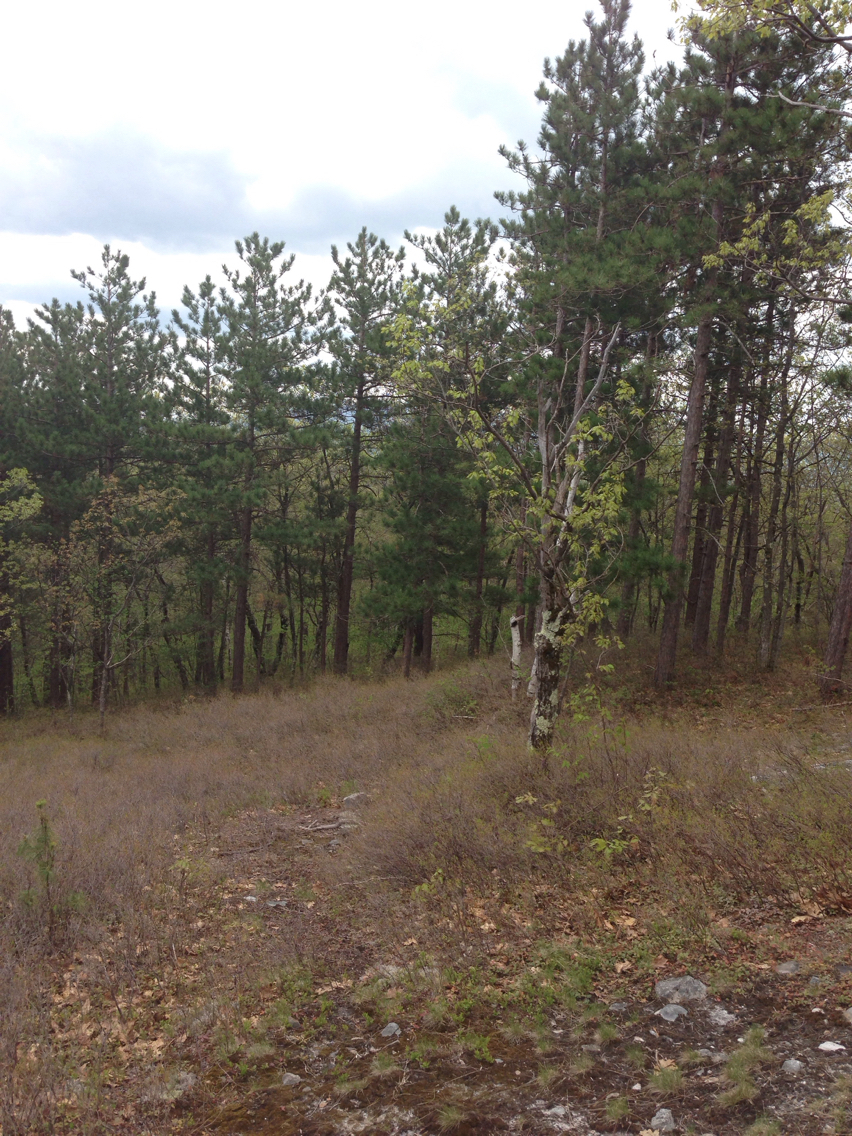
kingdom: Plantae
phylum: Tracheophyta
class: Pinopsida
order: Pinales
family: Pinaceae
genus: Pinus
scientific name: Pinus resinosa
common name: Norway pine
